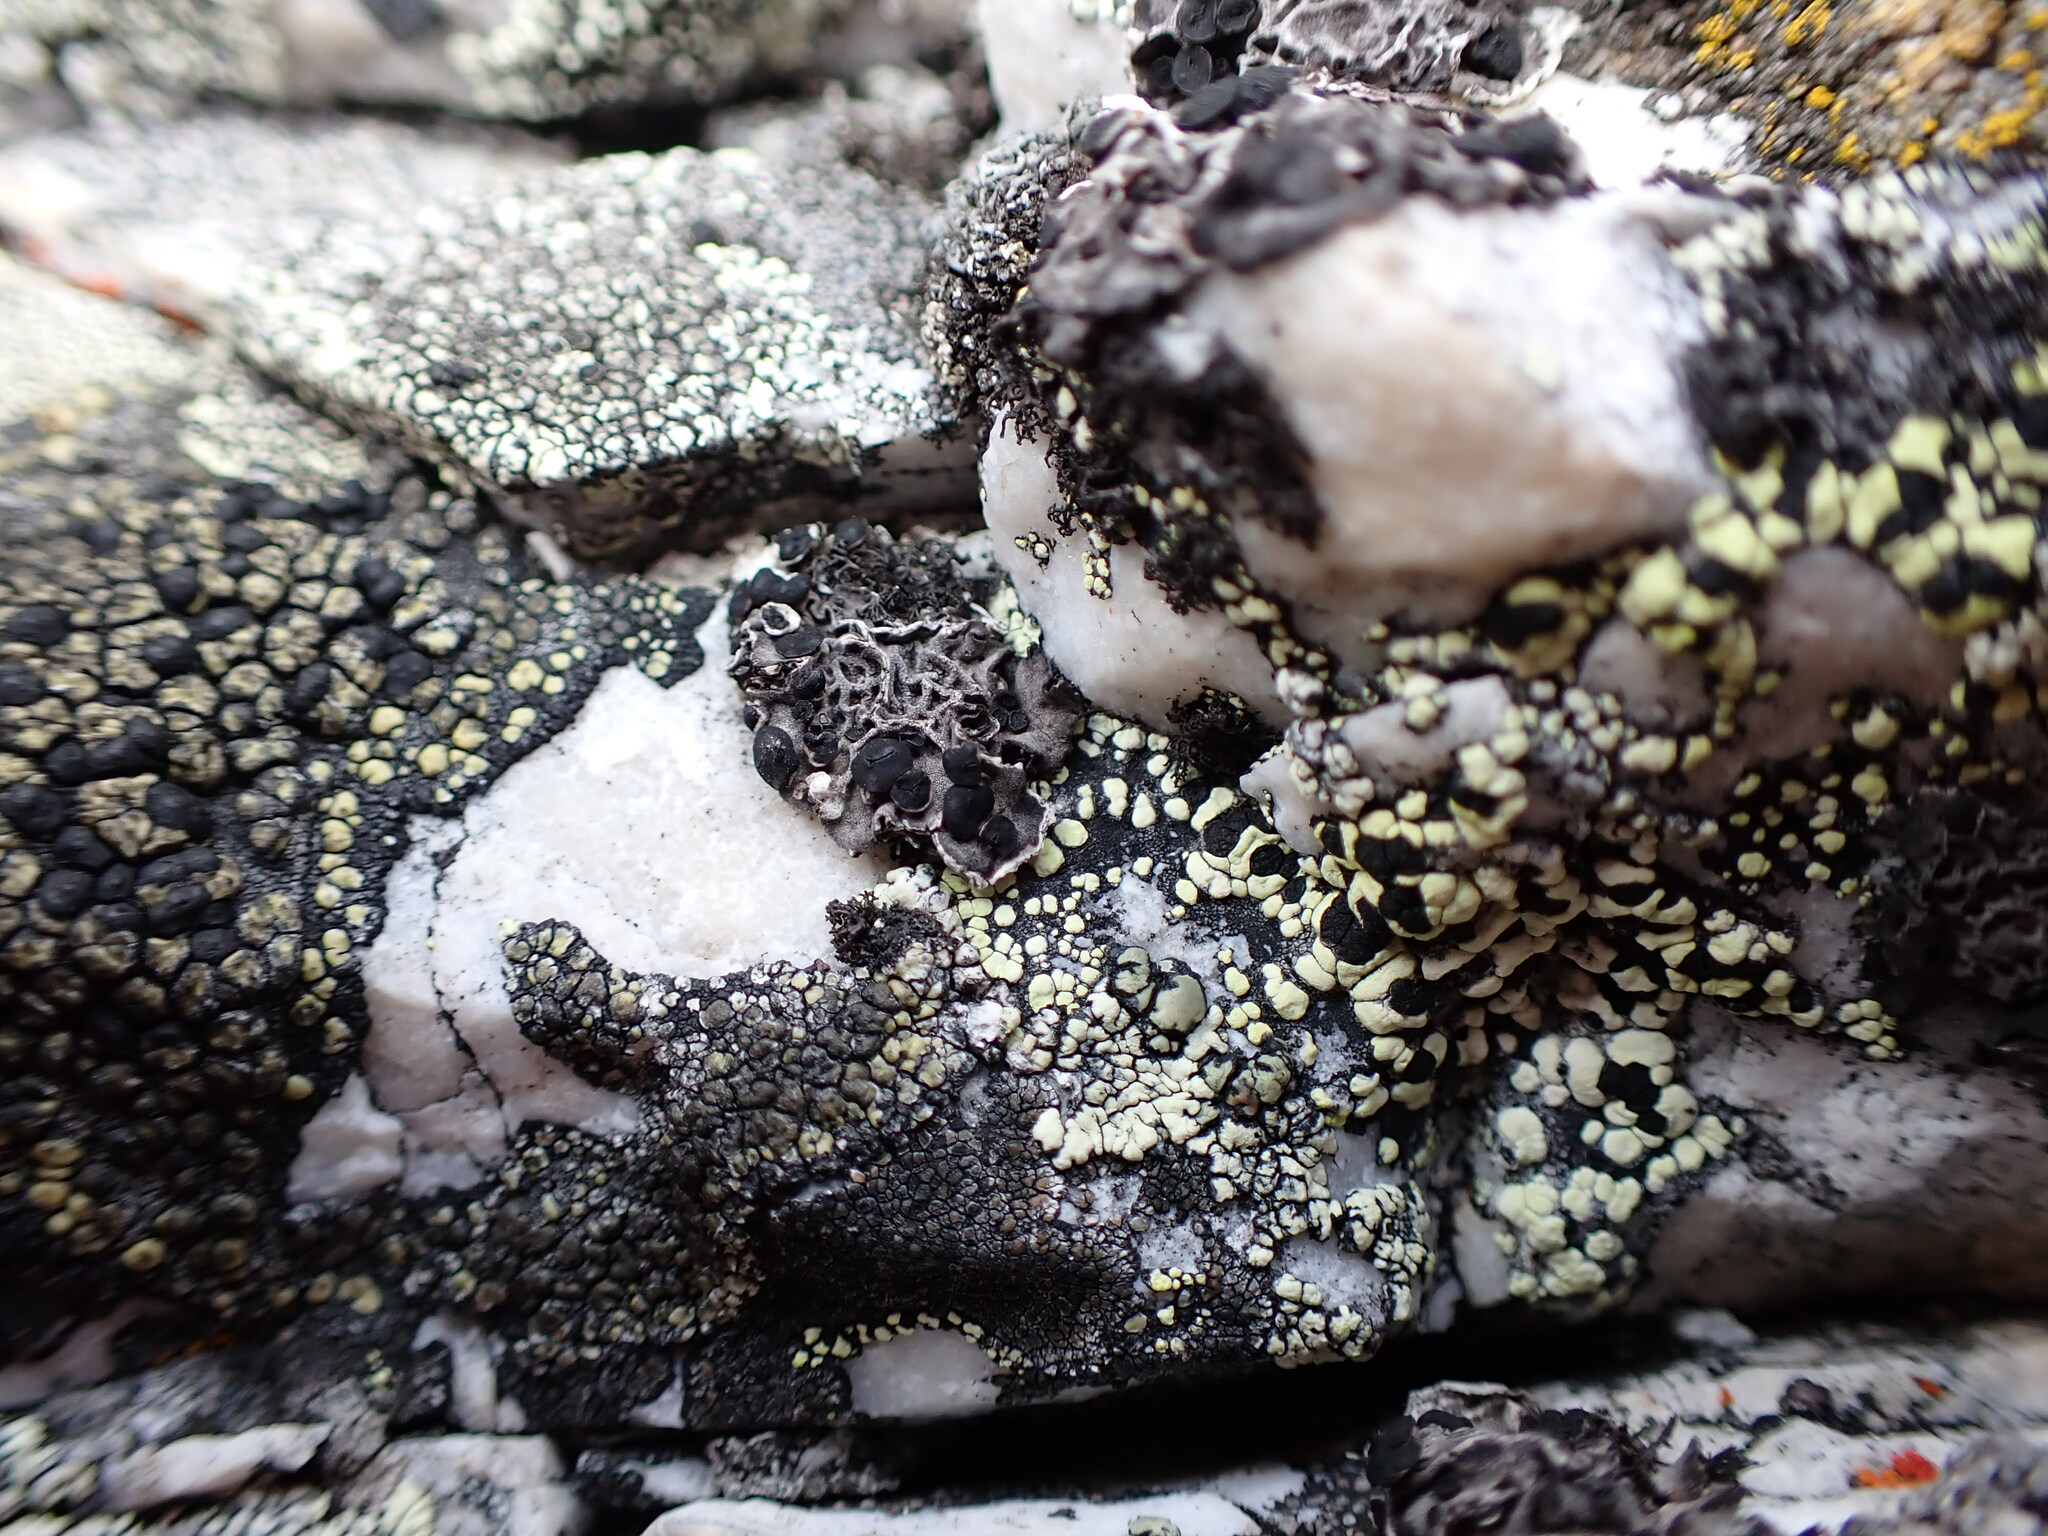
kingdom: Fungi
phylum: Ascomycota
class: Lecanoromycetes
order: Umbilicariales
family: Umbilicariaceae
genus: Umbilicaria
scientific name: Umbilicaria decussata
